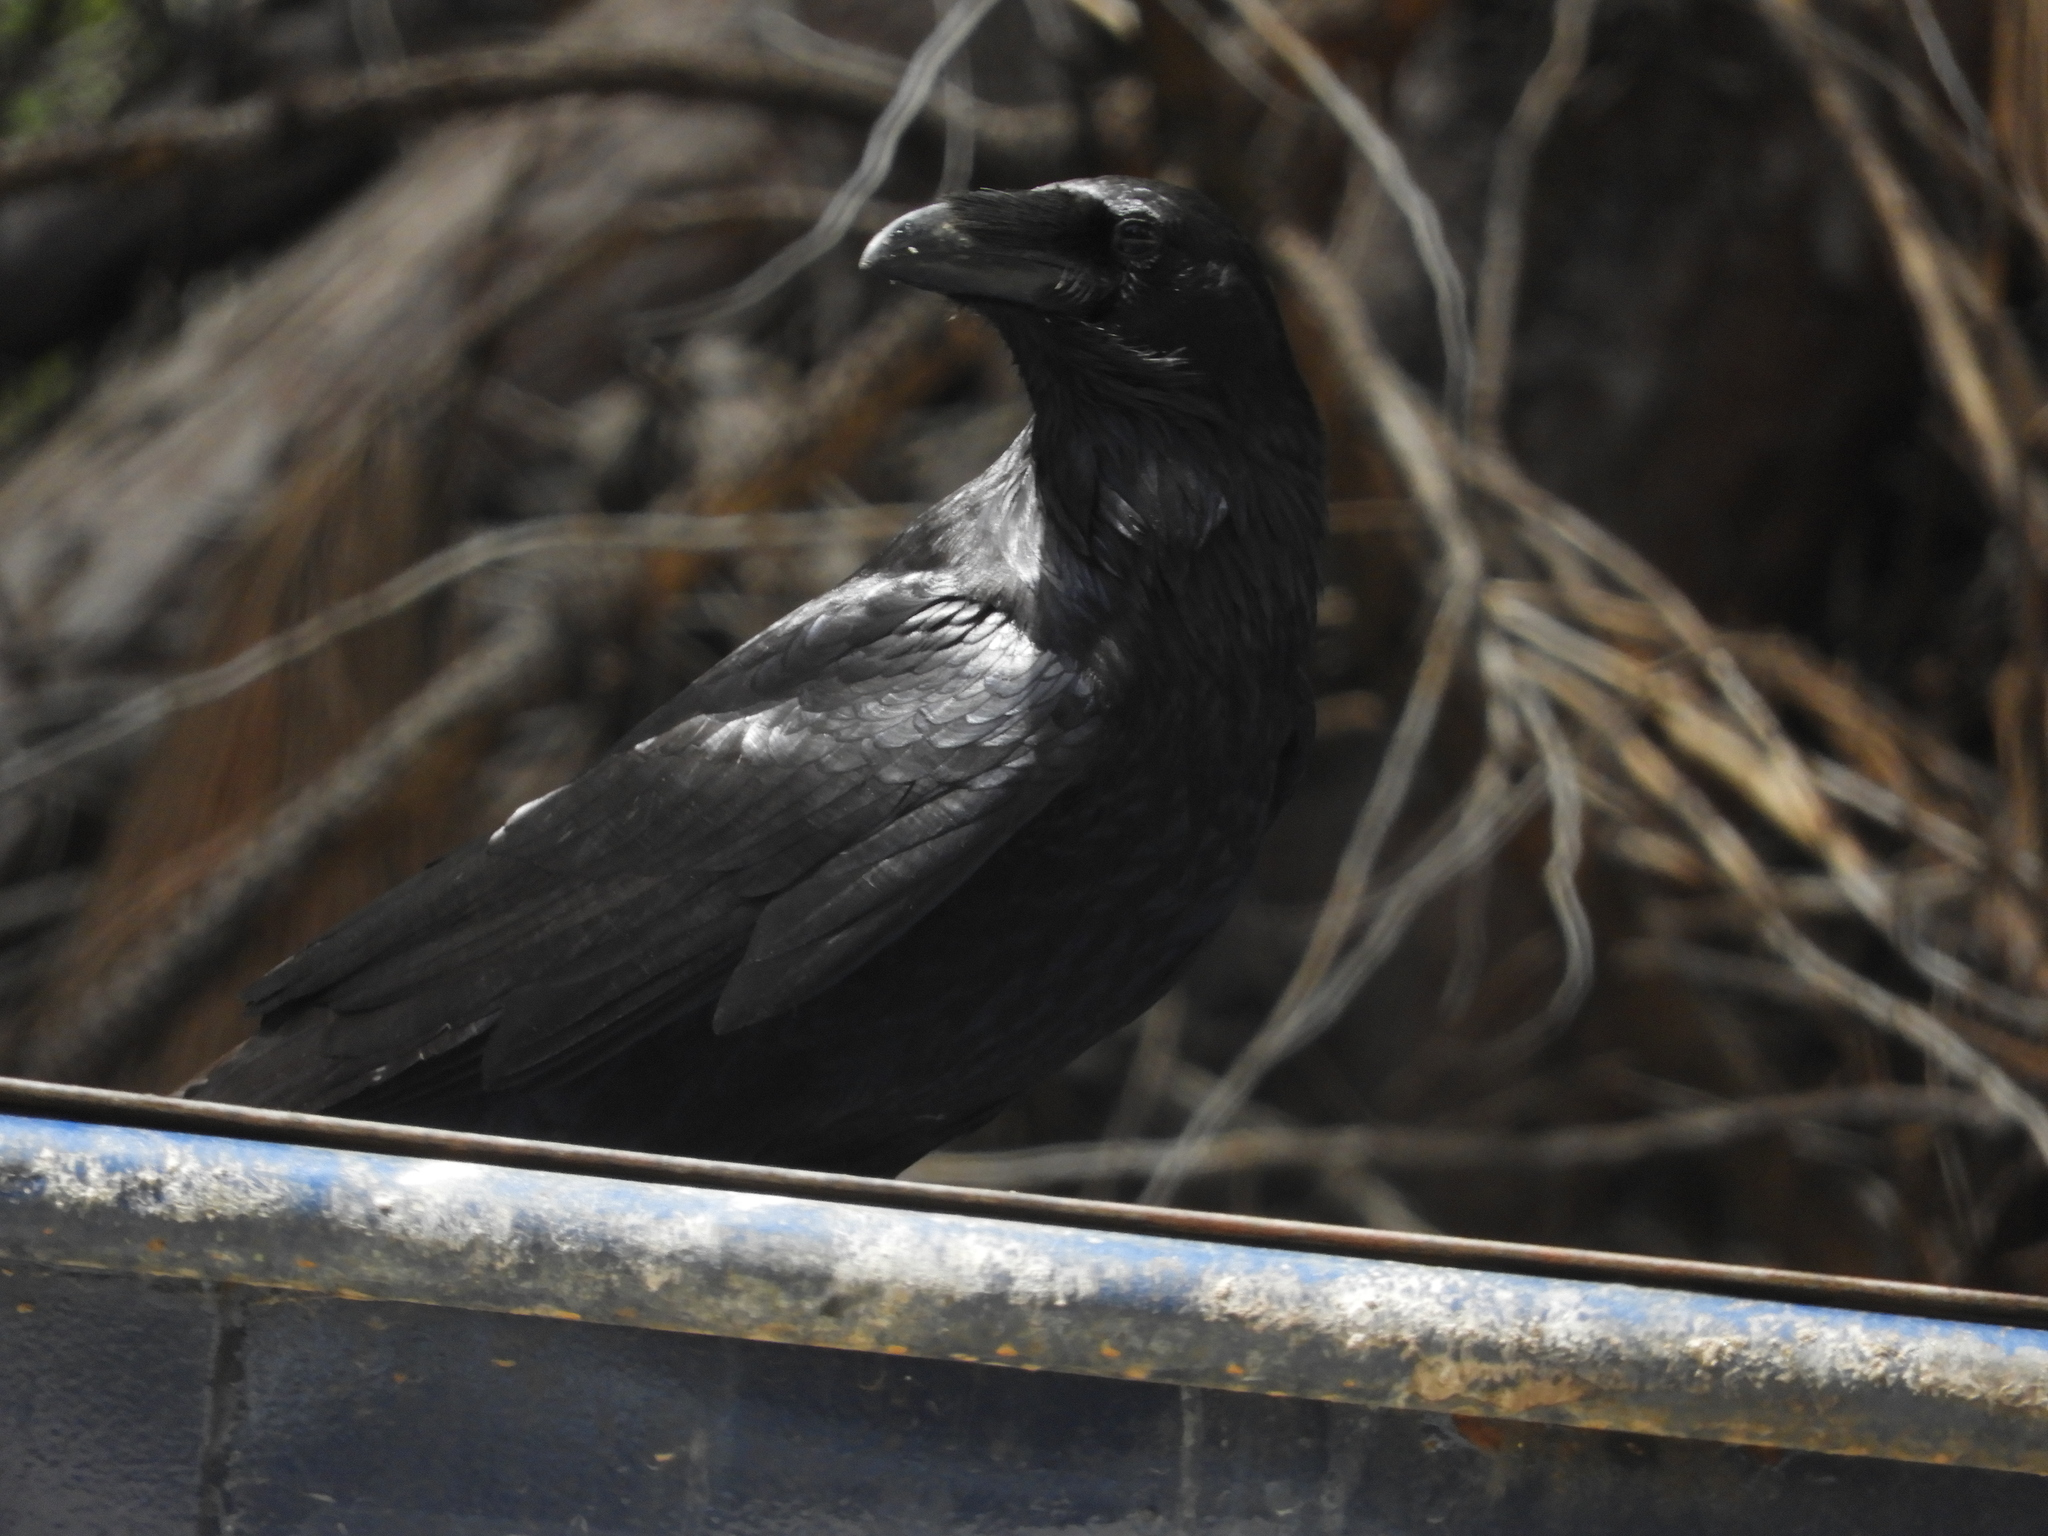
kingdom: Animalia
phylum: Chordata
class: Aves
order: Passeriformes
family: Corvidae
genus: Corvus
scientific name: Corvus corax
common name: Common raven
